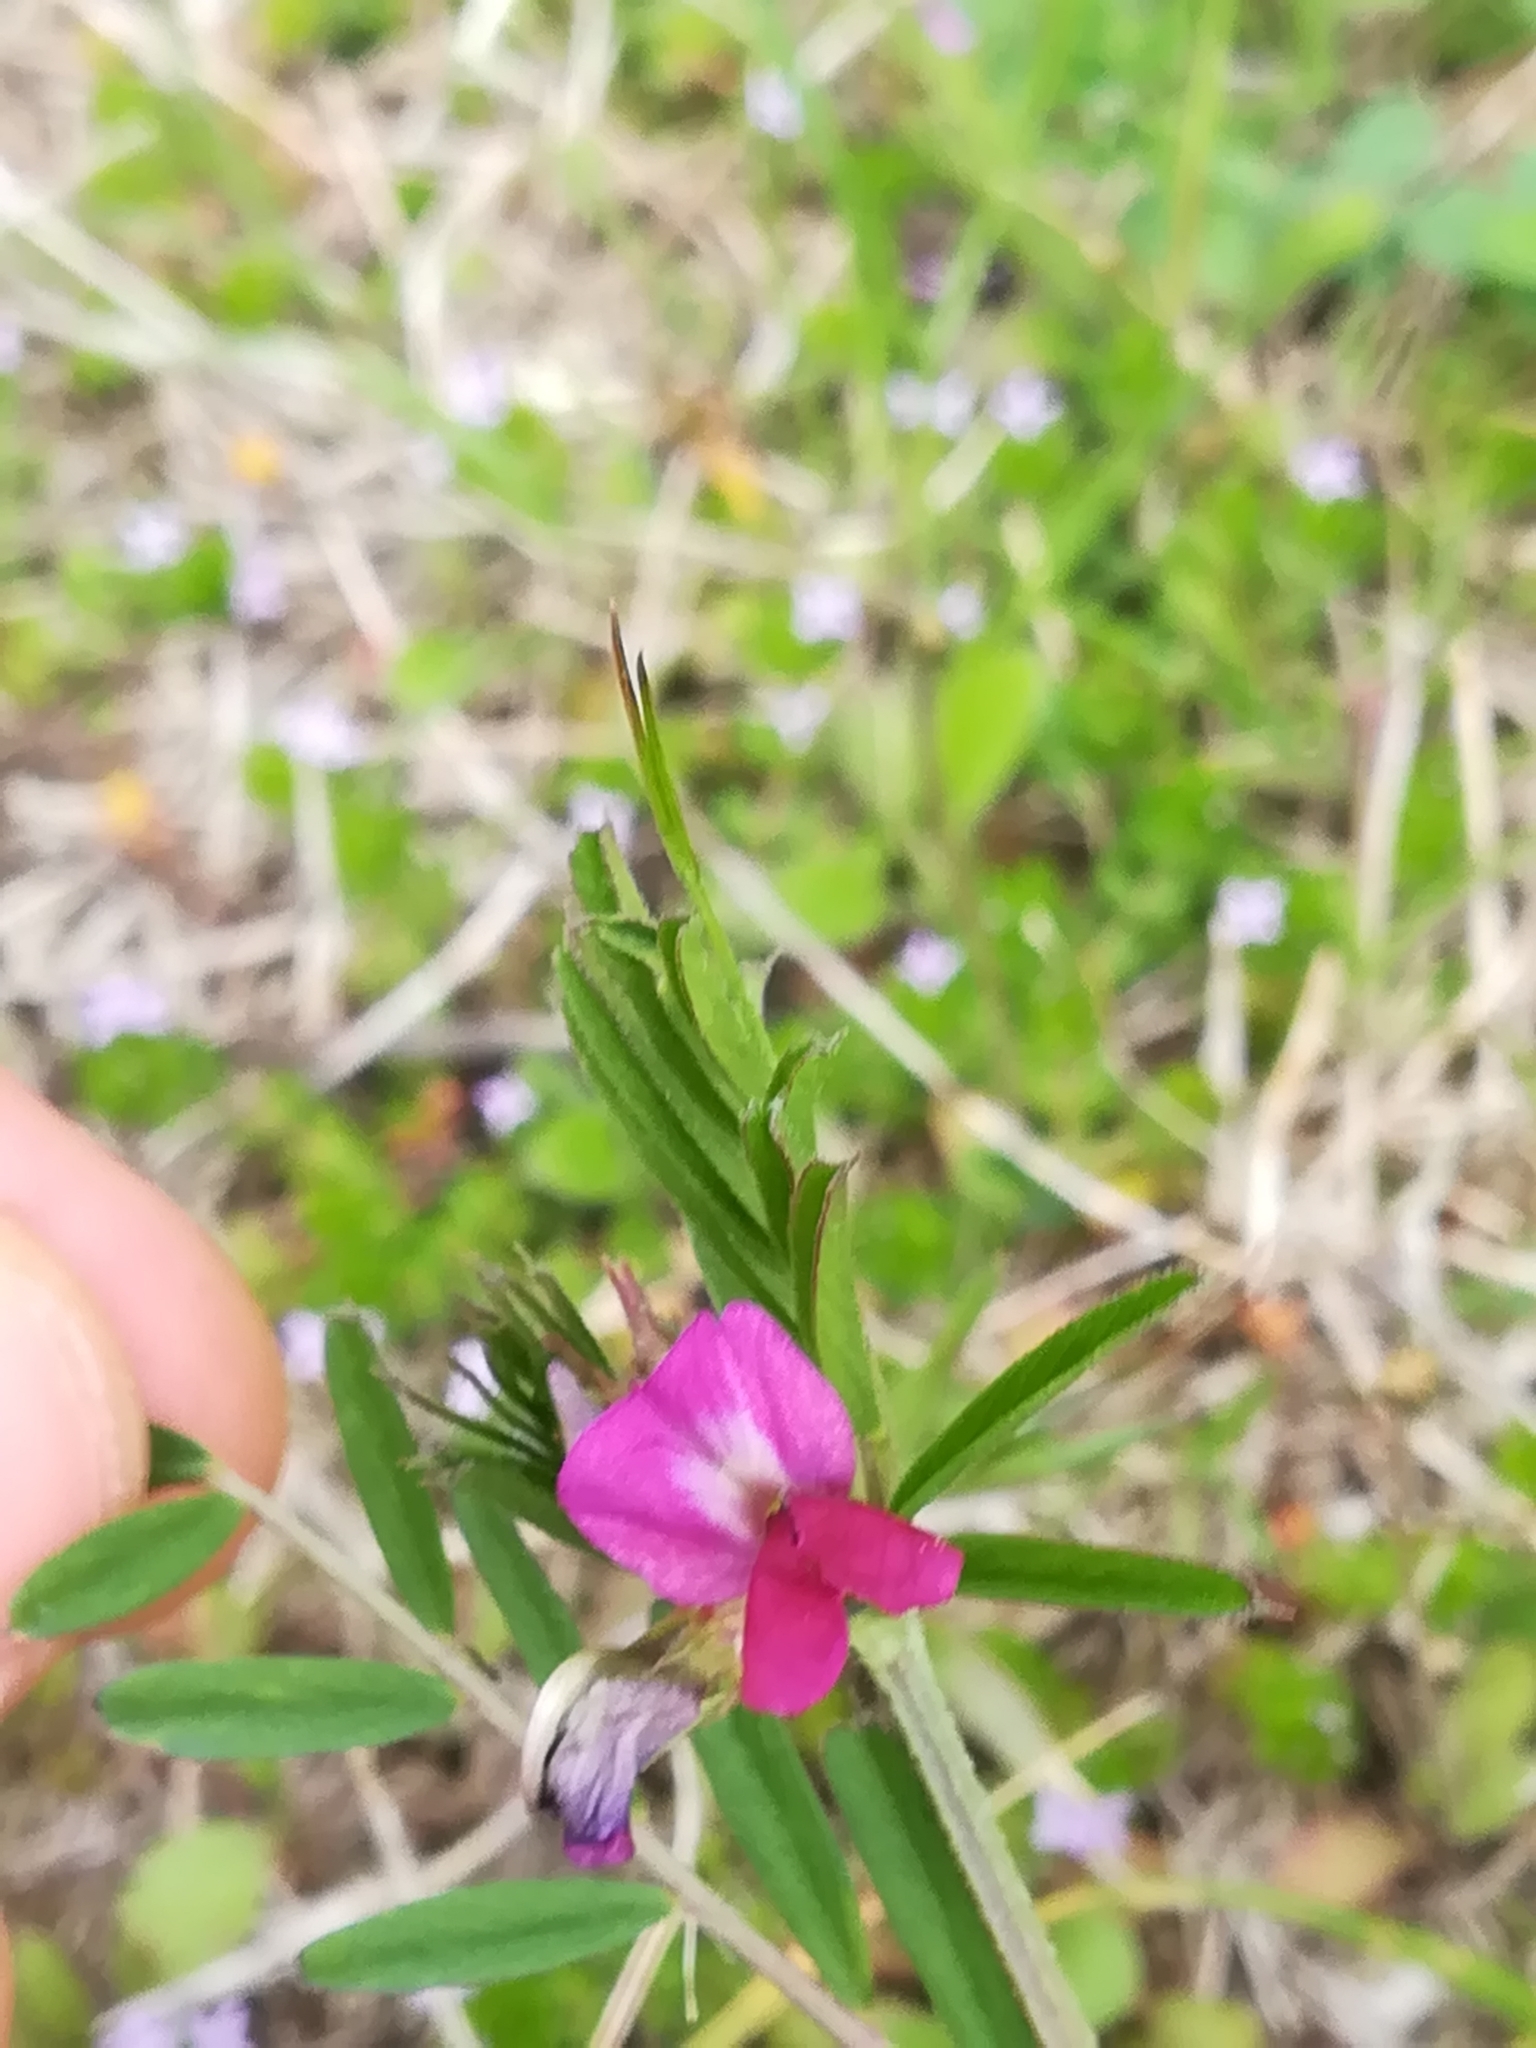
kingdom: Plantae
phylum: Tracheophyta
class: Magnoliopsida
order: Fabales
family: Fabaceae
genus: Vicia
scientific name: Vicia sativa
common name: Garden vetch
